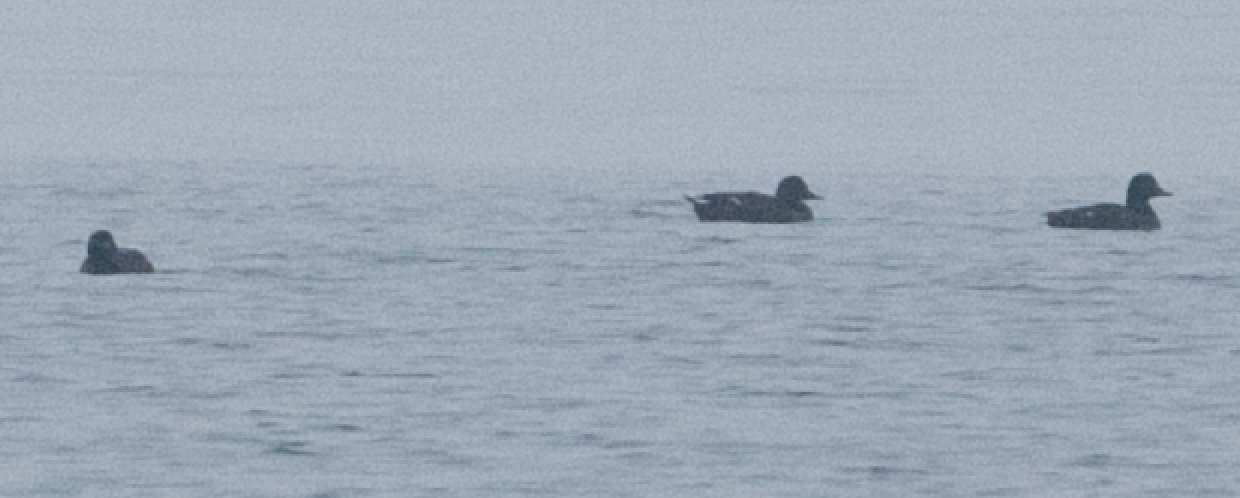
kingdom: Animalia
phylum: Chordata
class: Aves
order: Anseriformes
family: Anatidae
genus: Melanitta
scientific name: Melanitta fusca
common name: Velvet scoter
